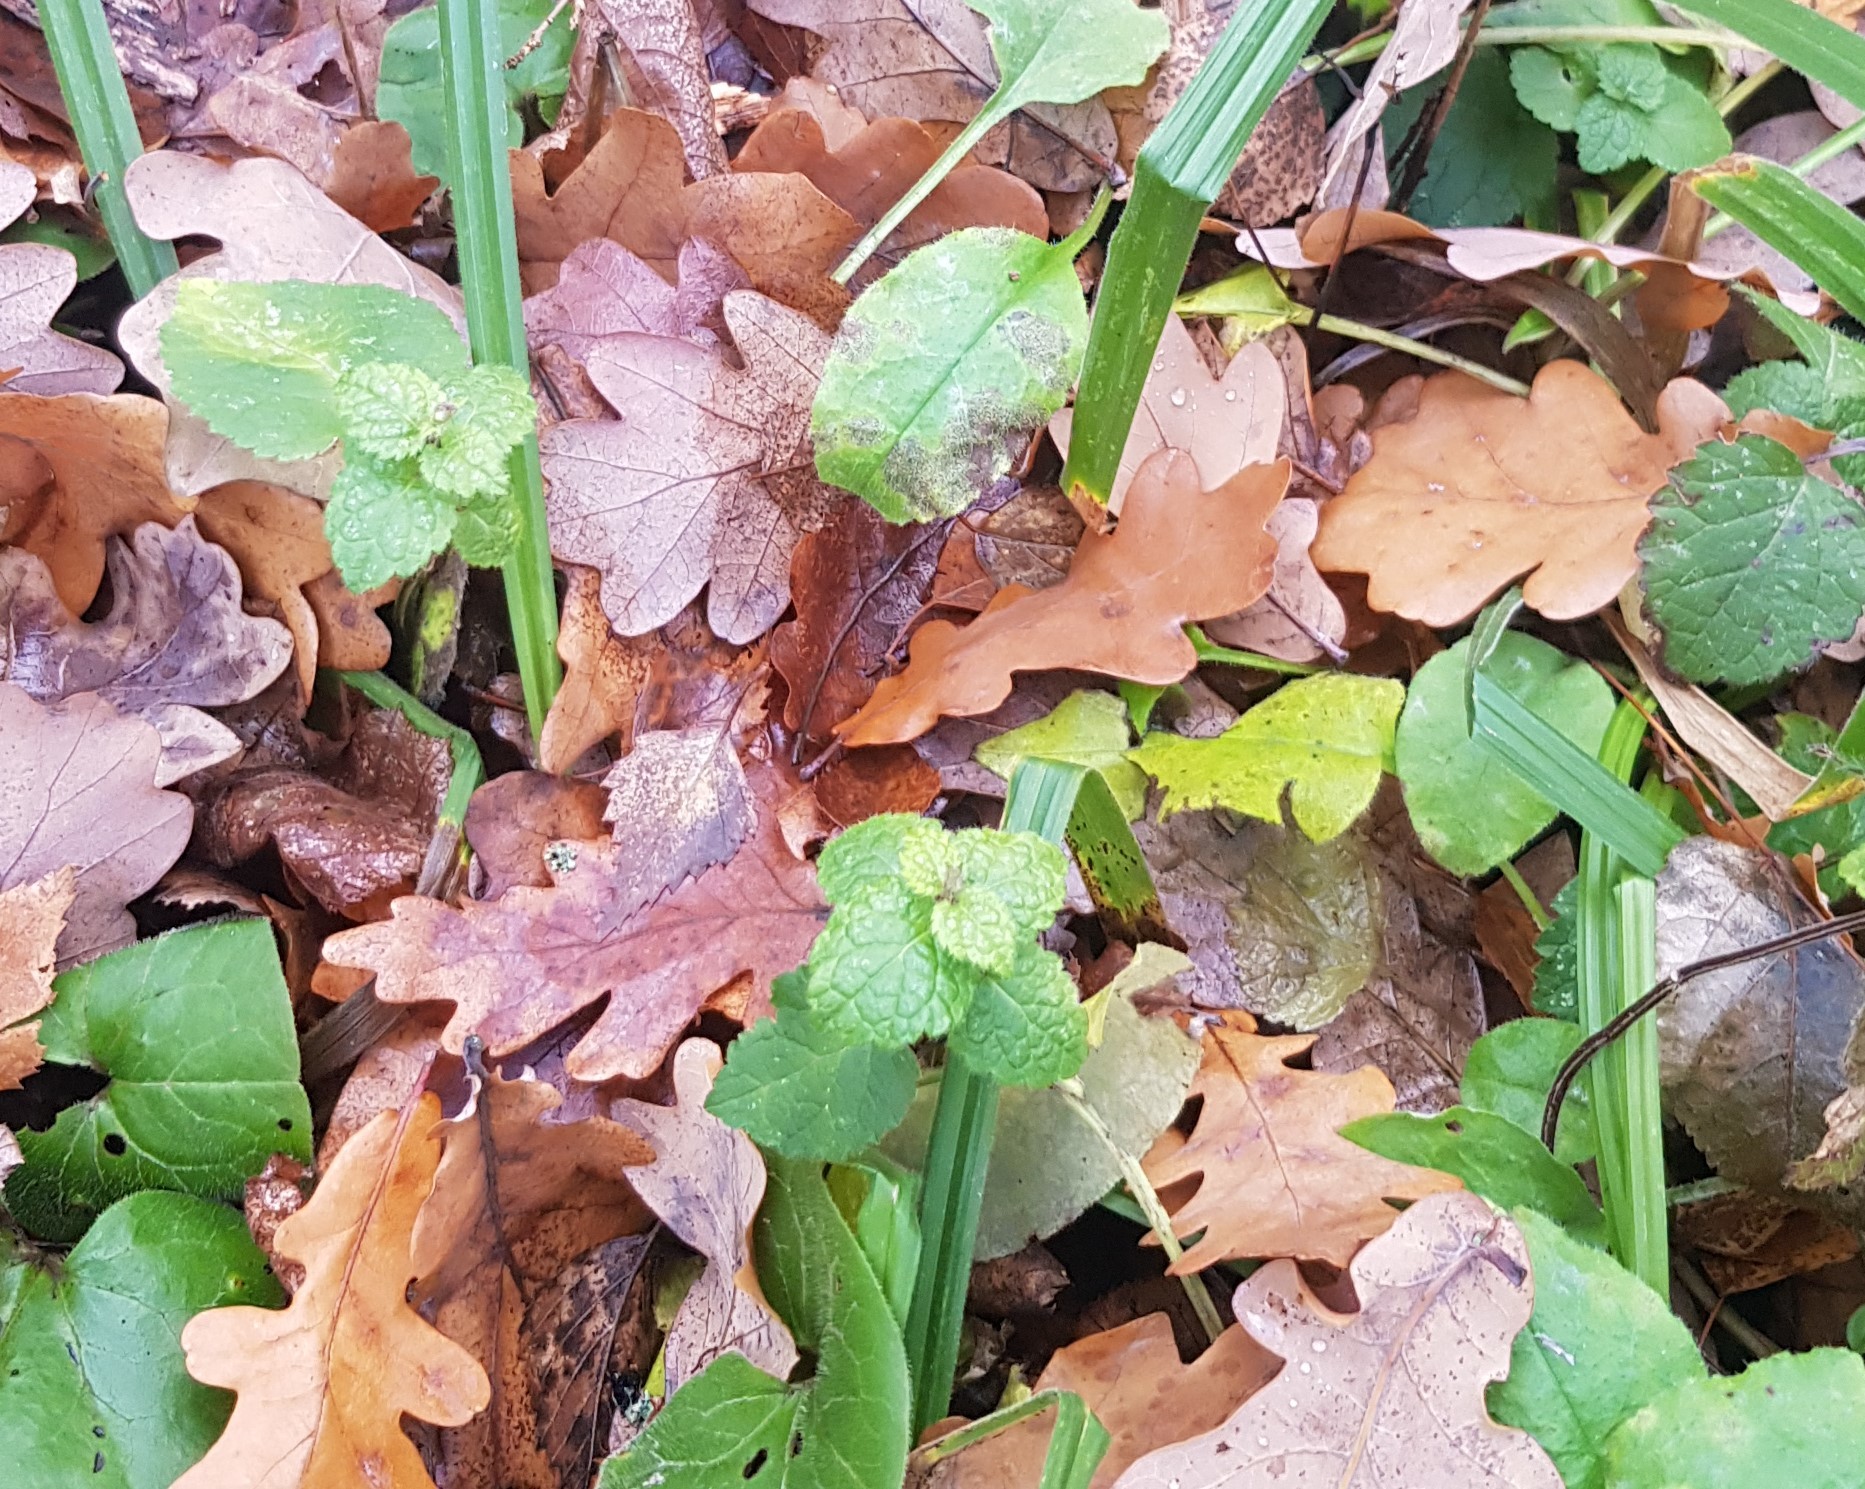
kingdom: Plantae
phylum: Tracheophyta
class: Magnoliopsida
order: Lamiales
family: Lamiaceae
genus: Lamium
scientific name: Lamium galeobdolon
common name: Yellow archangel
